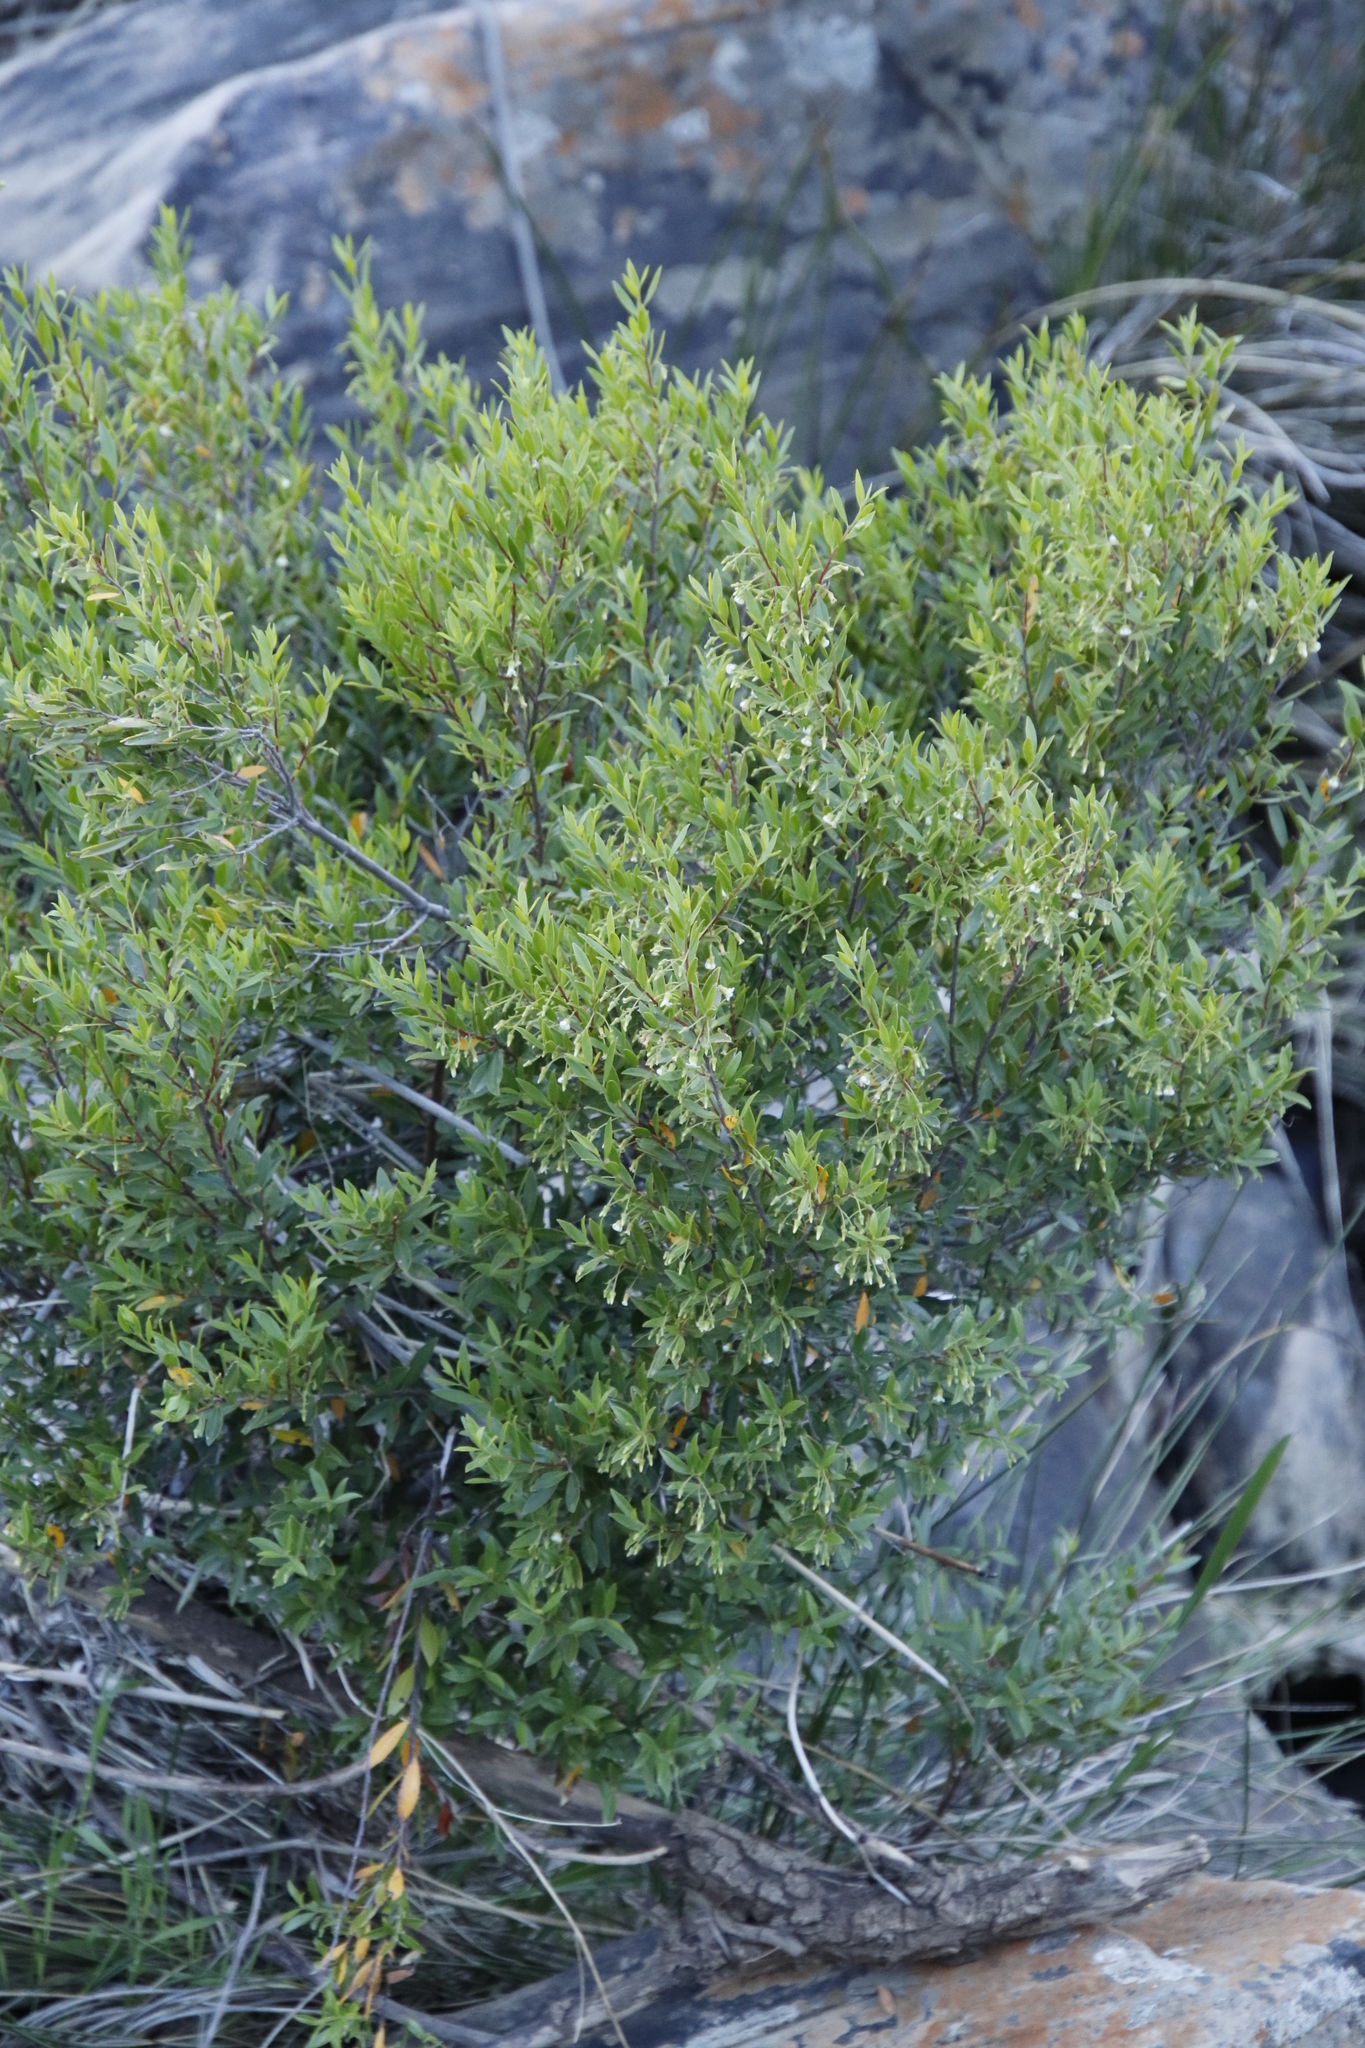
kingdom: Plantae
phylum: Tracheophyta
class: Magnoliopsida
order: Ericales
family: Ebenaceae
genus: Diospyros
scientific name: Diospyros glabra
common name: Fynbos star apple
